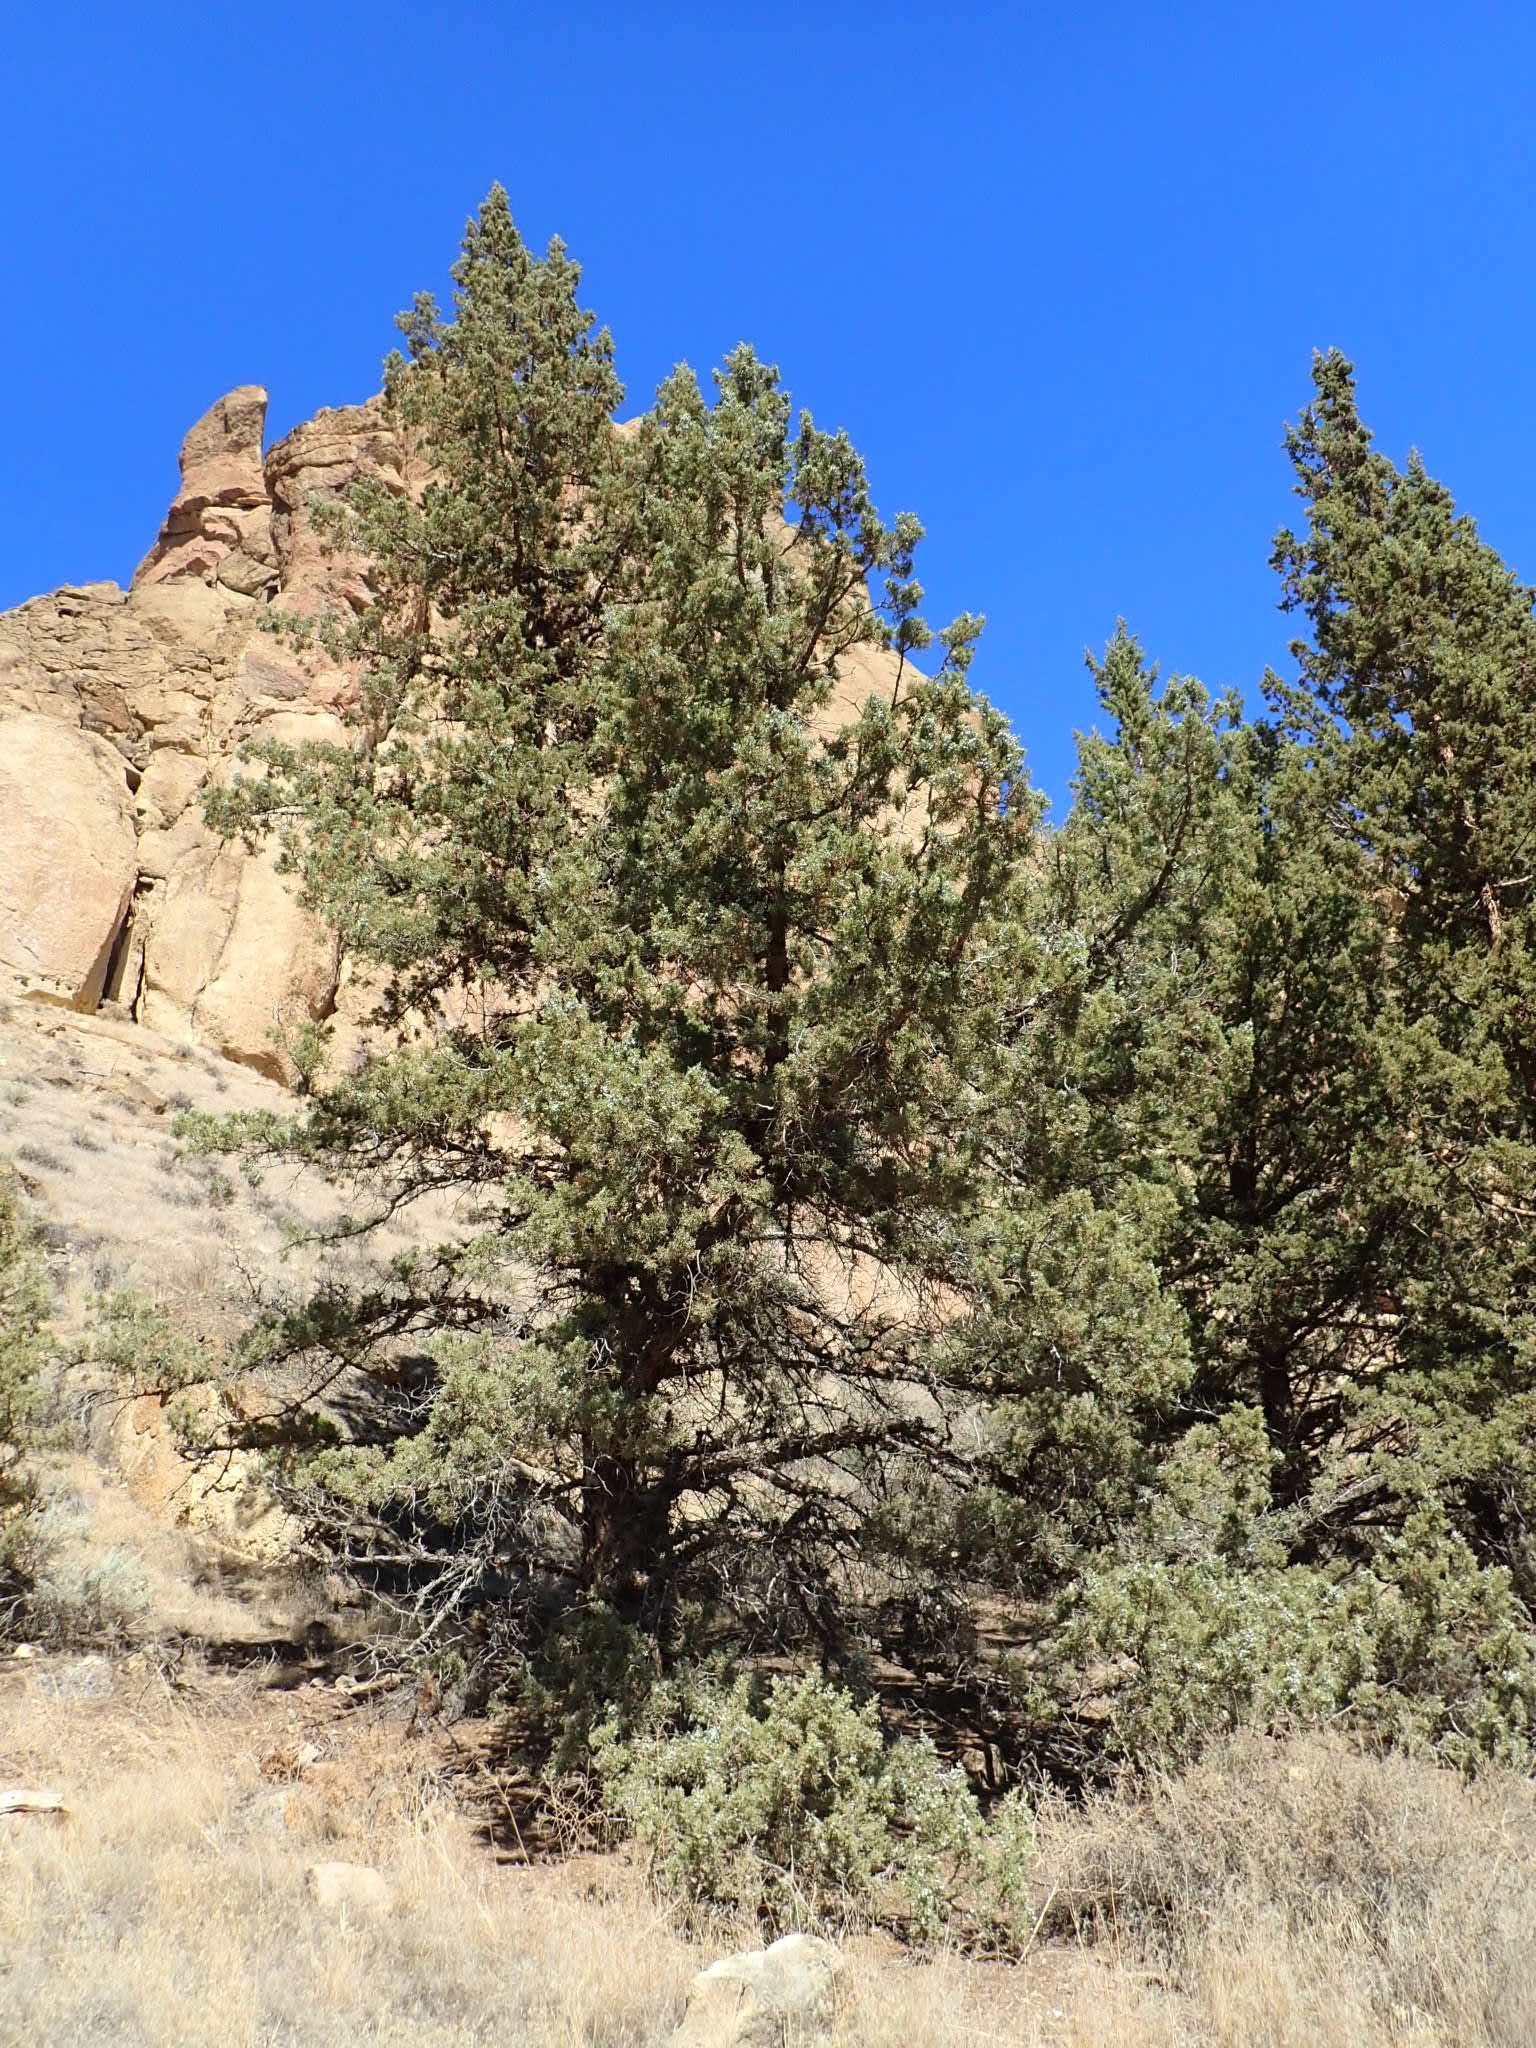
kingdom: Plantae
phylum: Tracheophyta
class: Pinopsida
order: Pinales
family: Cupressaceae
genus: Juniperus
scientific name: Juniperus occidentalis
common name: Western juniper
